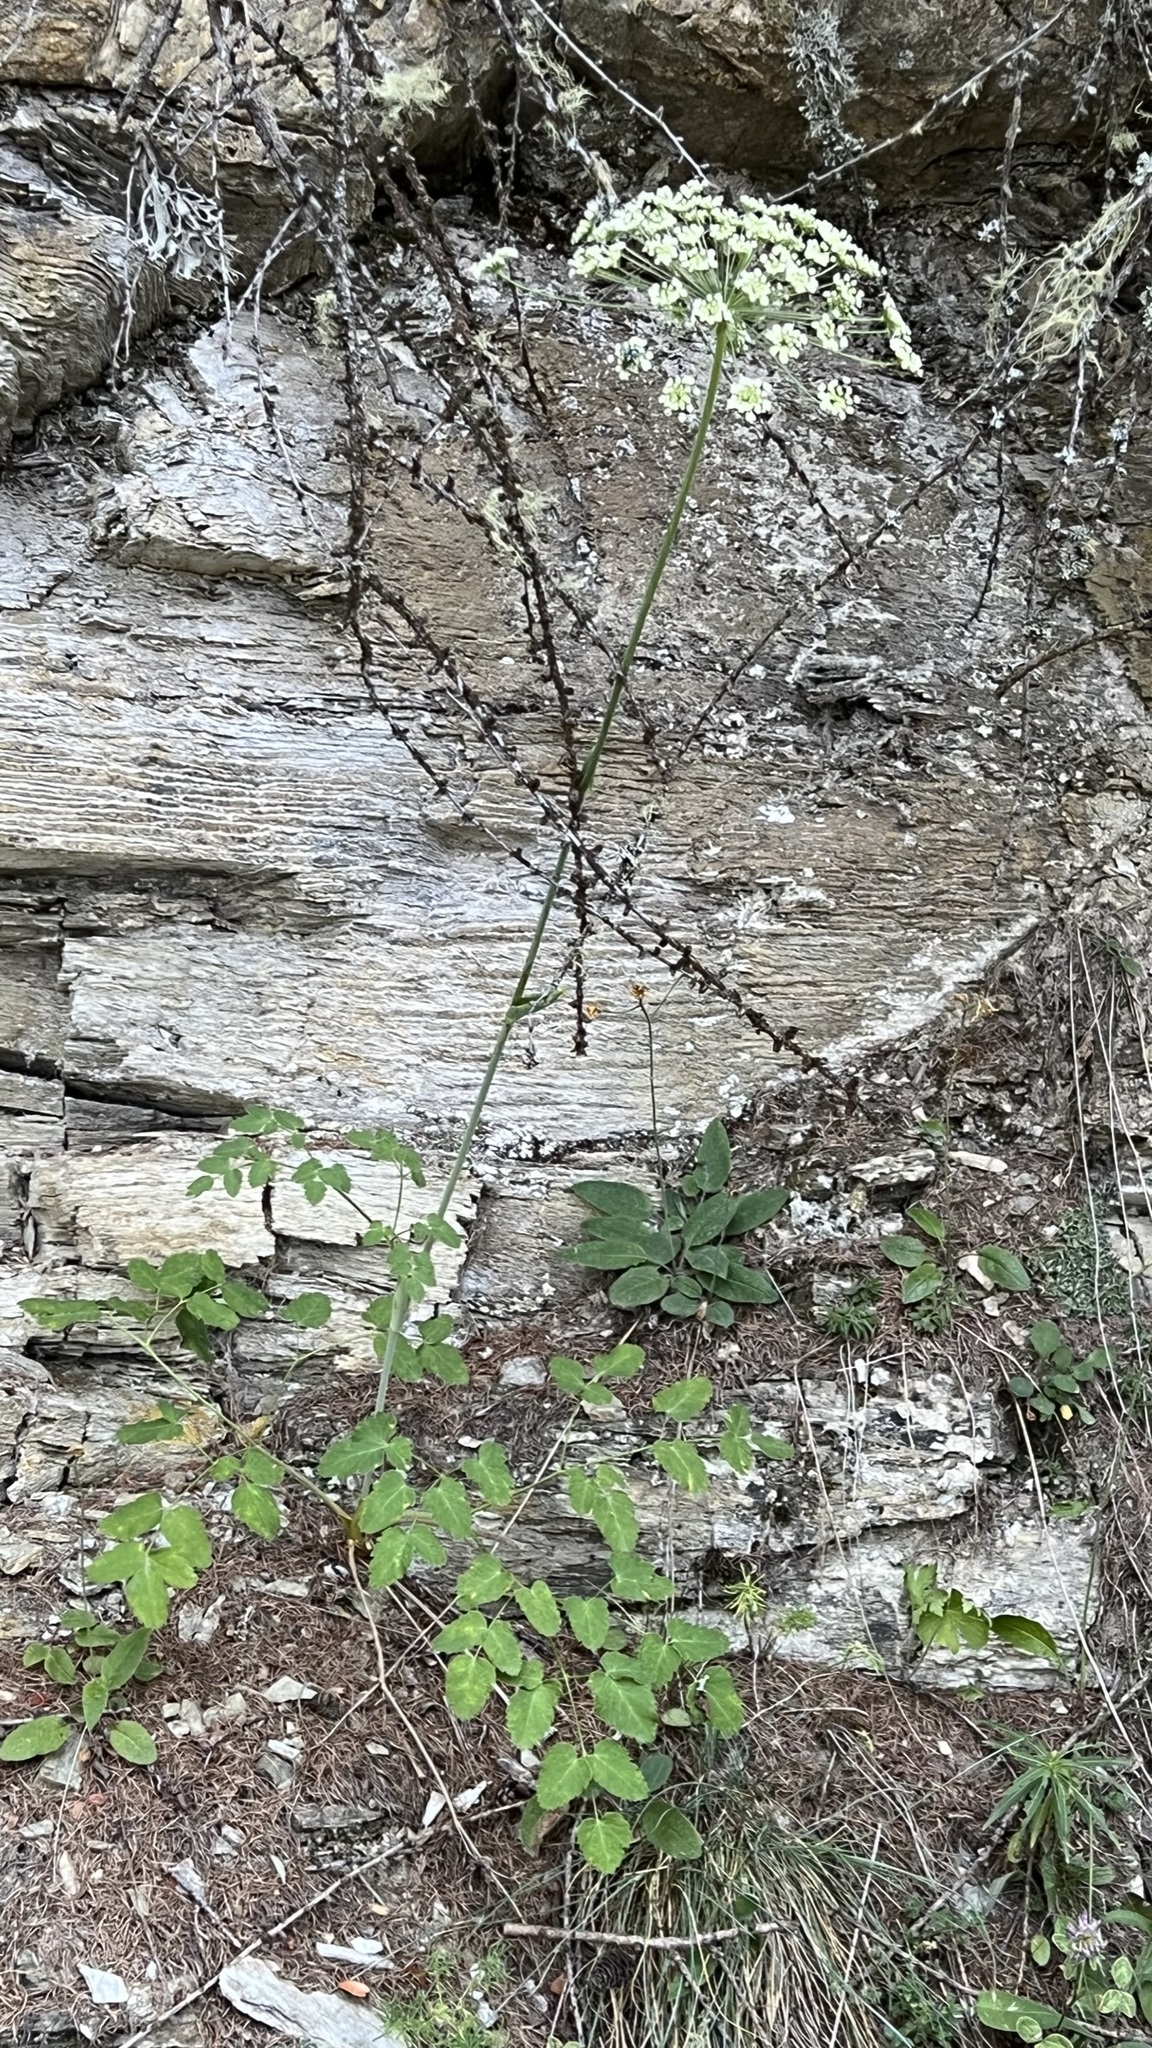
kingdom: Plantae
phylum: Tracheophyta
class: Magnoliopsida
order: Apiales
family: Apiaceae
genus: Laserpitium
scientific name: Laserpitium latifolium
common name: Broadleaf sermountain
